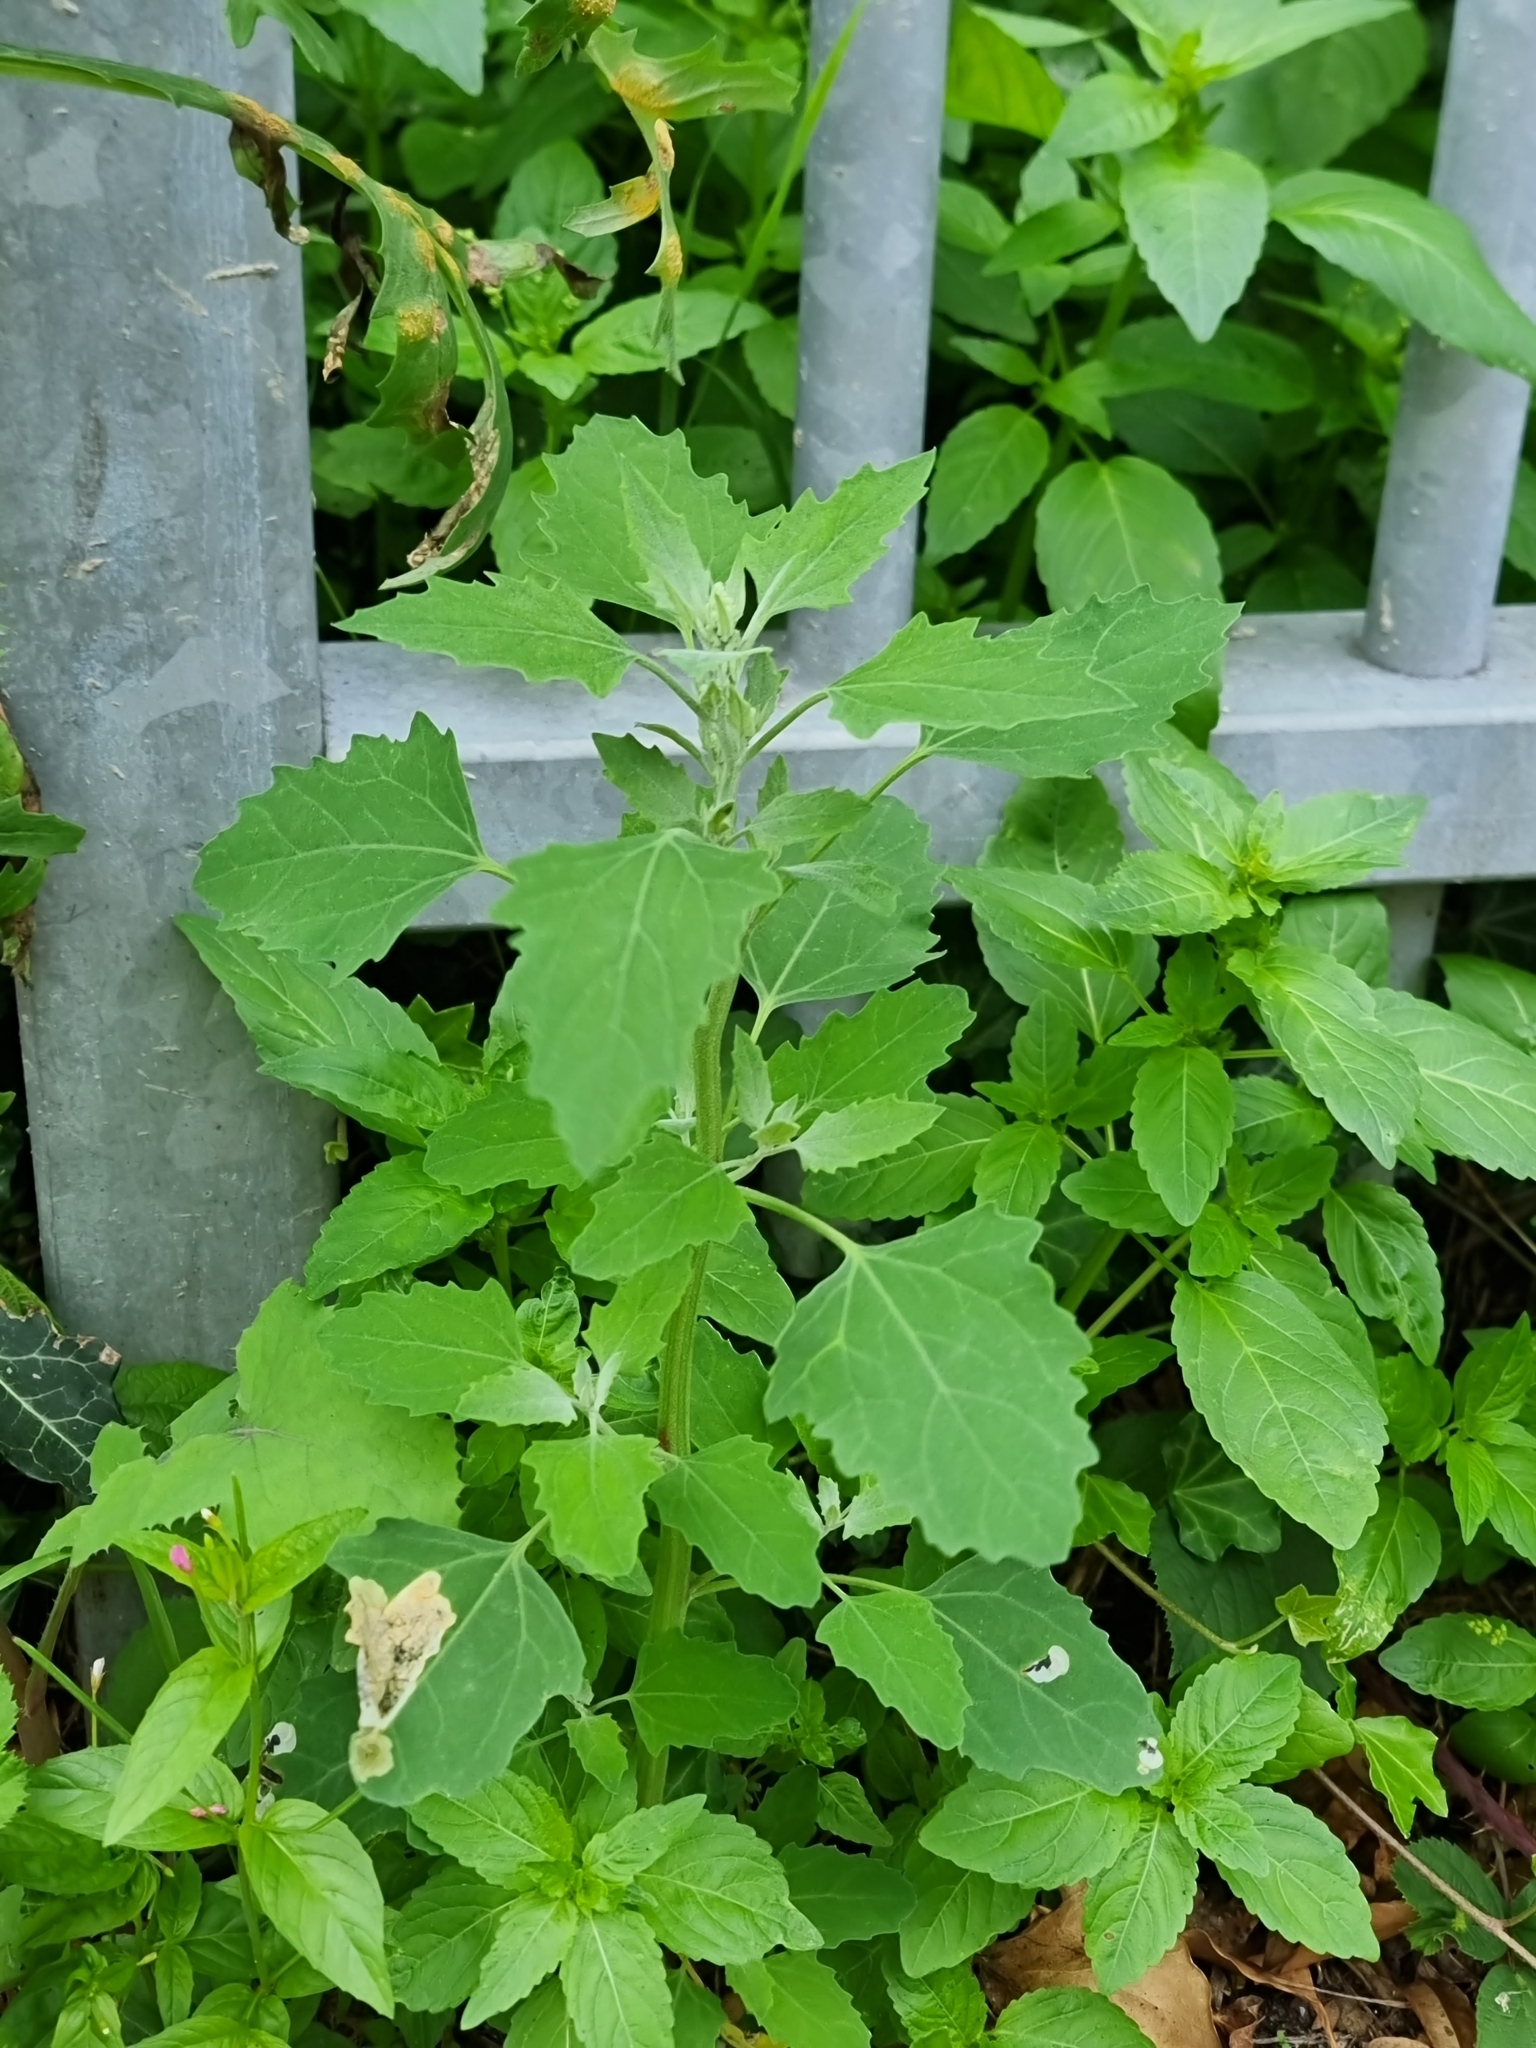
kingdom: Plantae
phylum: Tracheophyta
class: Magnoliopsida
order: Caryophyllales
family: Amaranthaceae
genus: Chenopodium
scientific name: Chenopodium album
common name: Fat-hen
